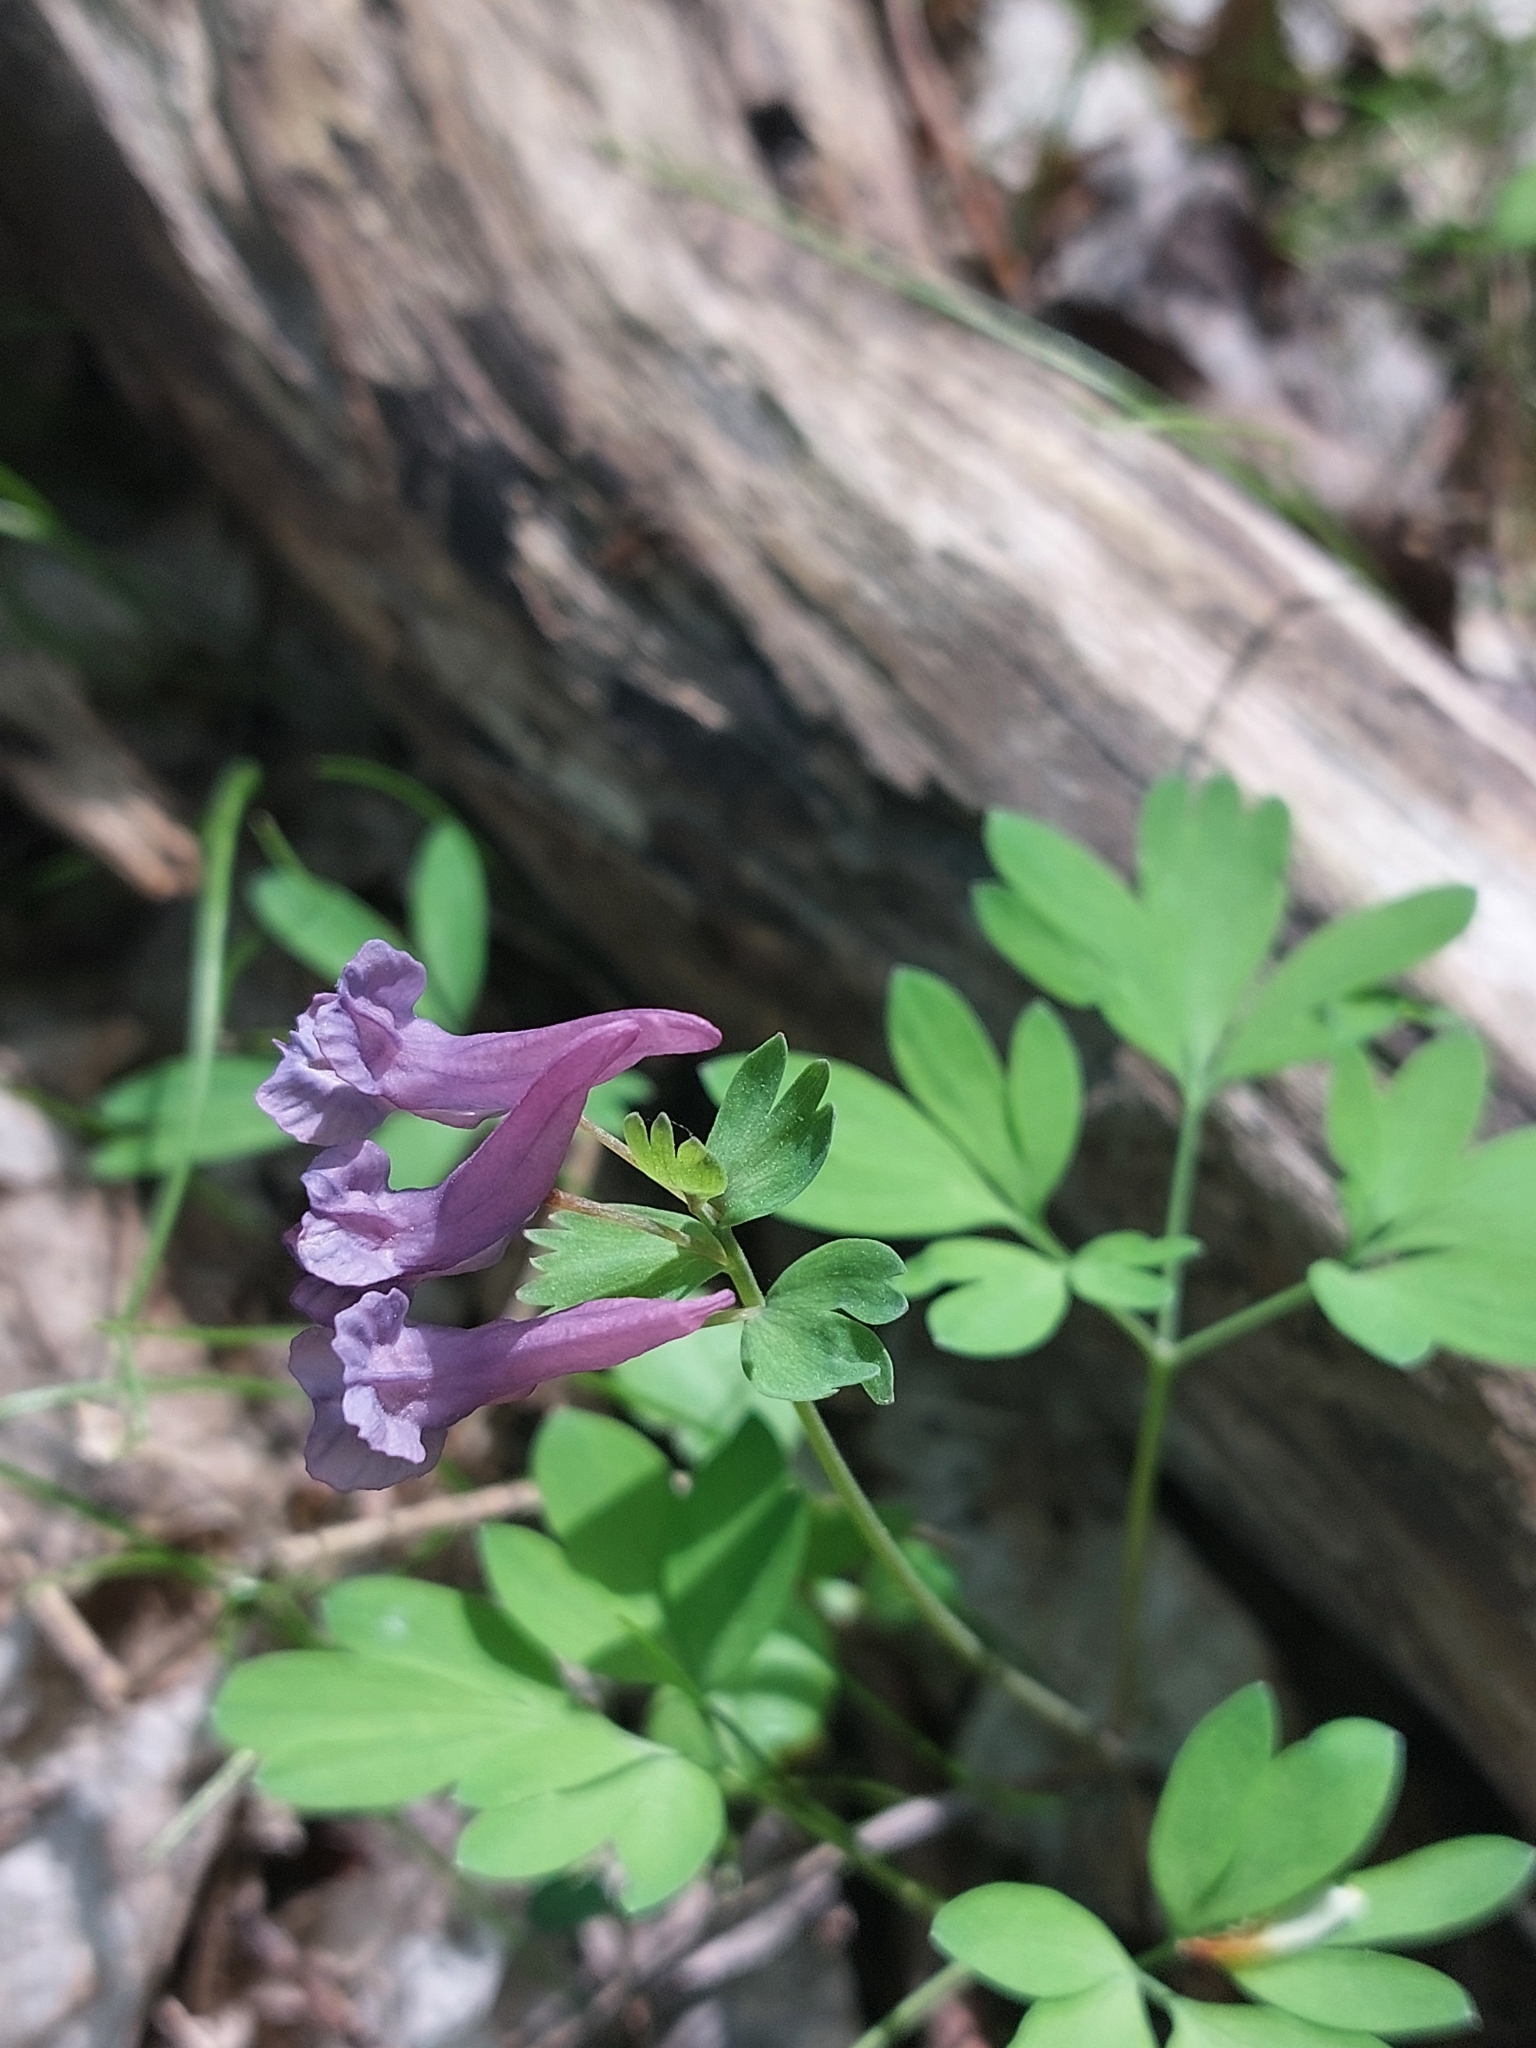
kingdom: Plantae
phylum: Tracheophyta
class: Magnoliopsida
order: Ranunculales
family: Papaveraceae
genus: Corydalis
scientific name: Corydalis solida
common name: Bird-in-a-bush
